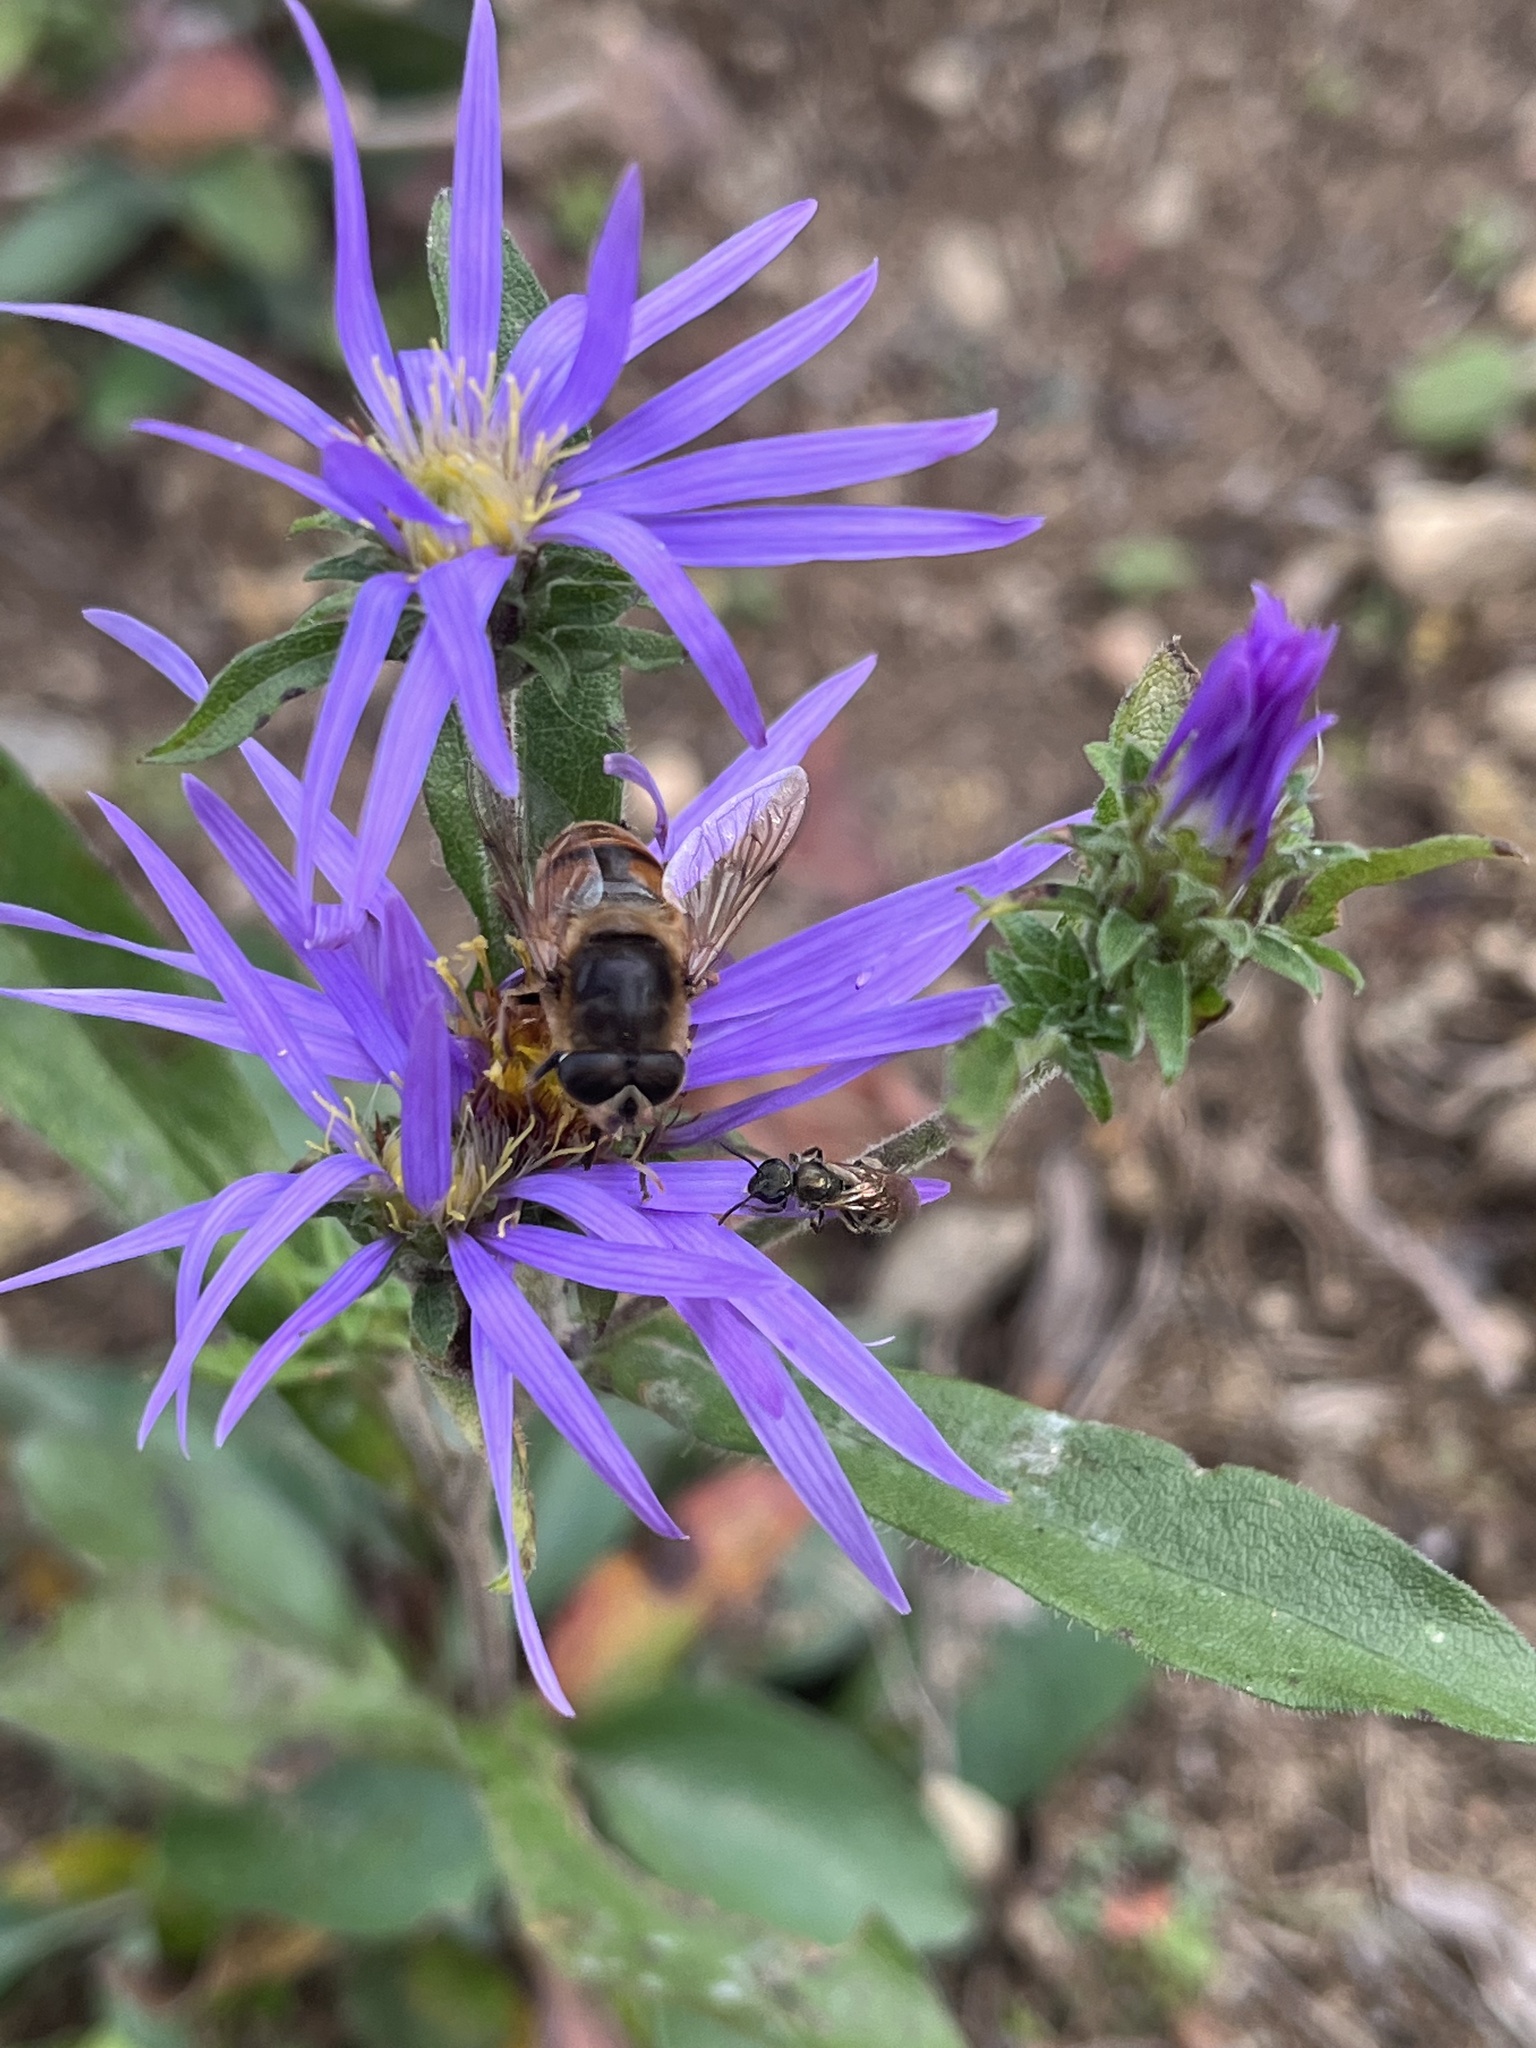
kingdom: Animalia
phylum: Arthropoda
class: Insecta
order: Diptera
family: Syrphidae
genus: Eristalis
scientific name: Eristalis tenax
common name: Drone fly
